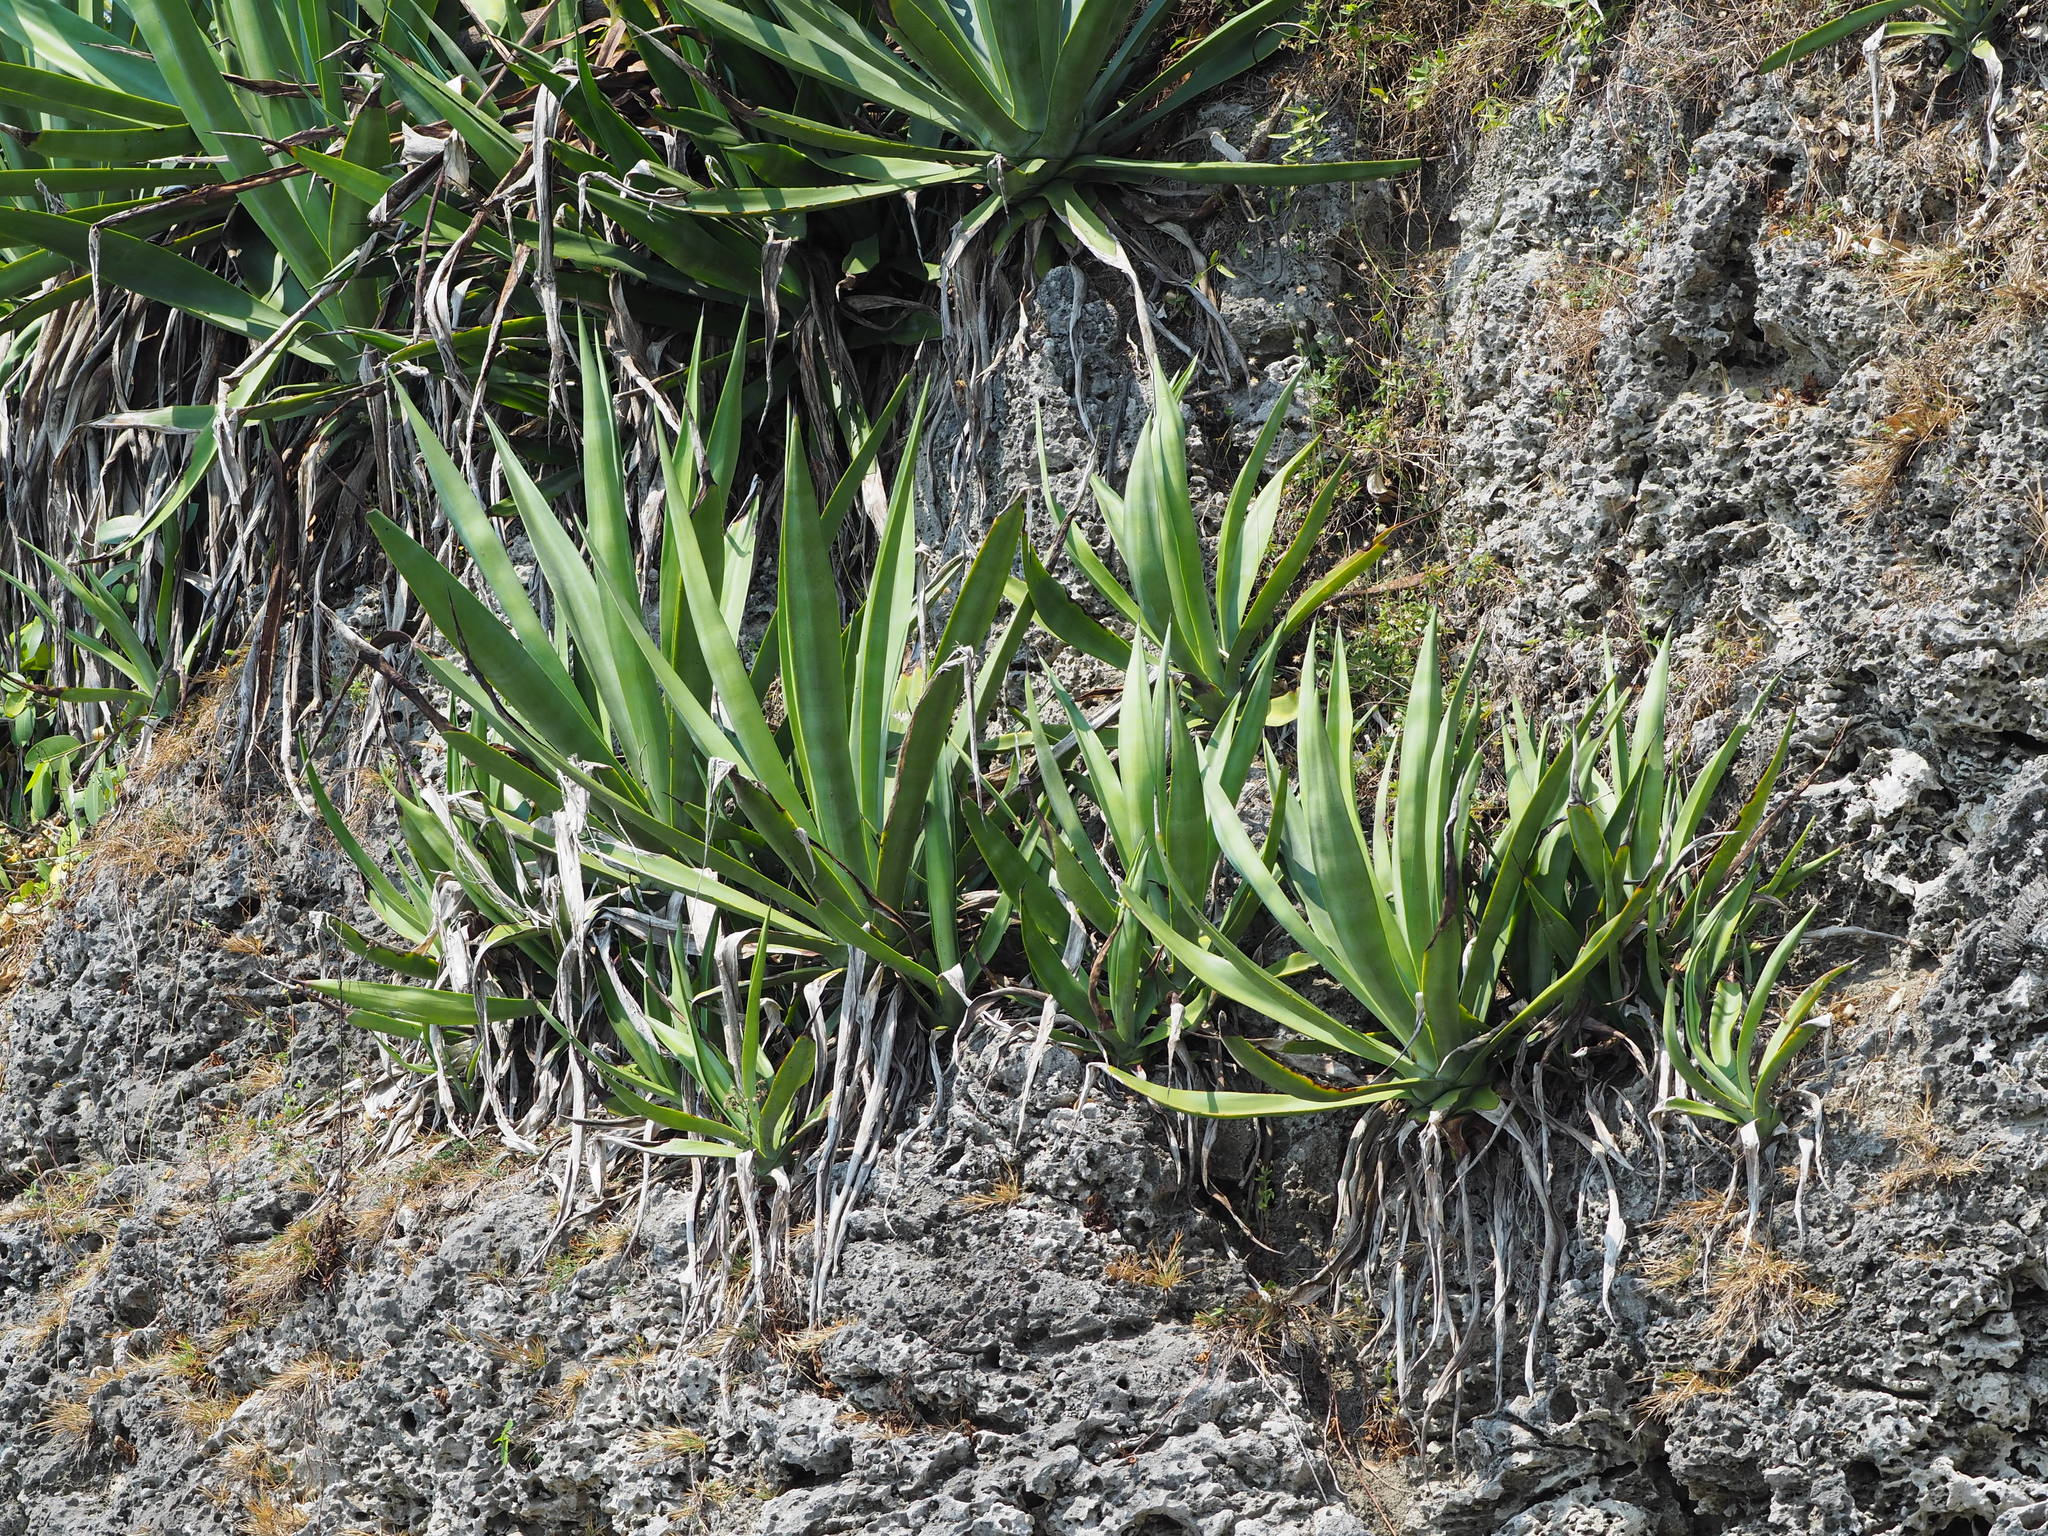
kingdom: Plantae
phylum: Tracheophyta
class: Liliopsida
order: Asparagales
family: Asparagaceae
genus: Agave
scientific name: Agave sisalana
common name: Sisal hemp
